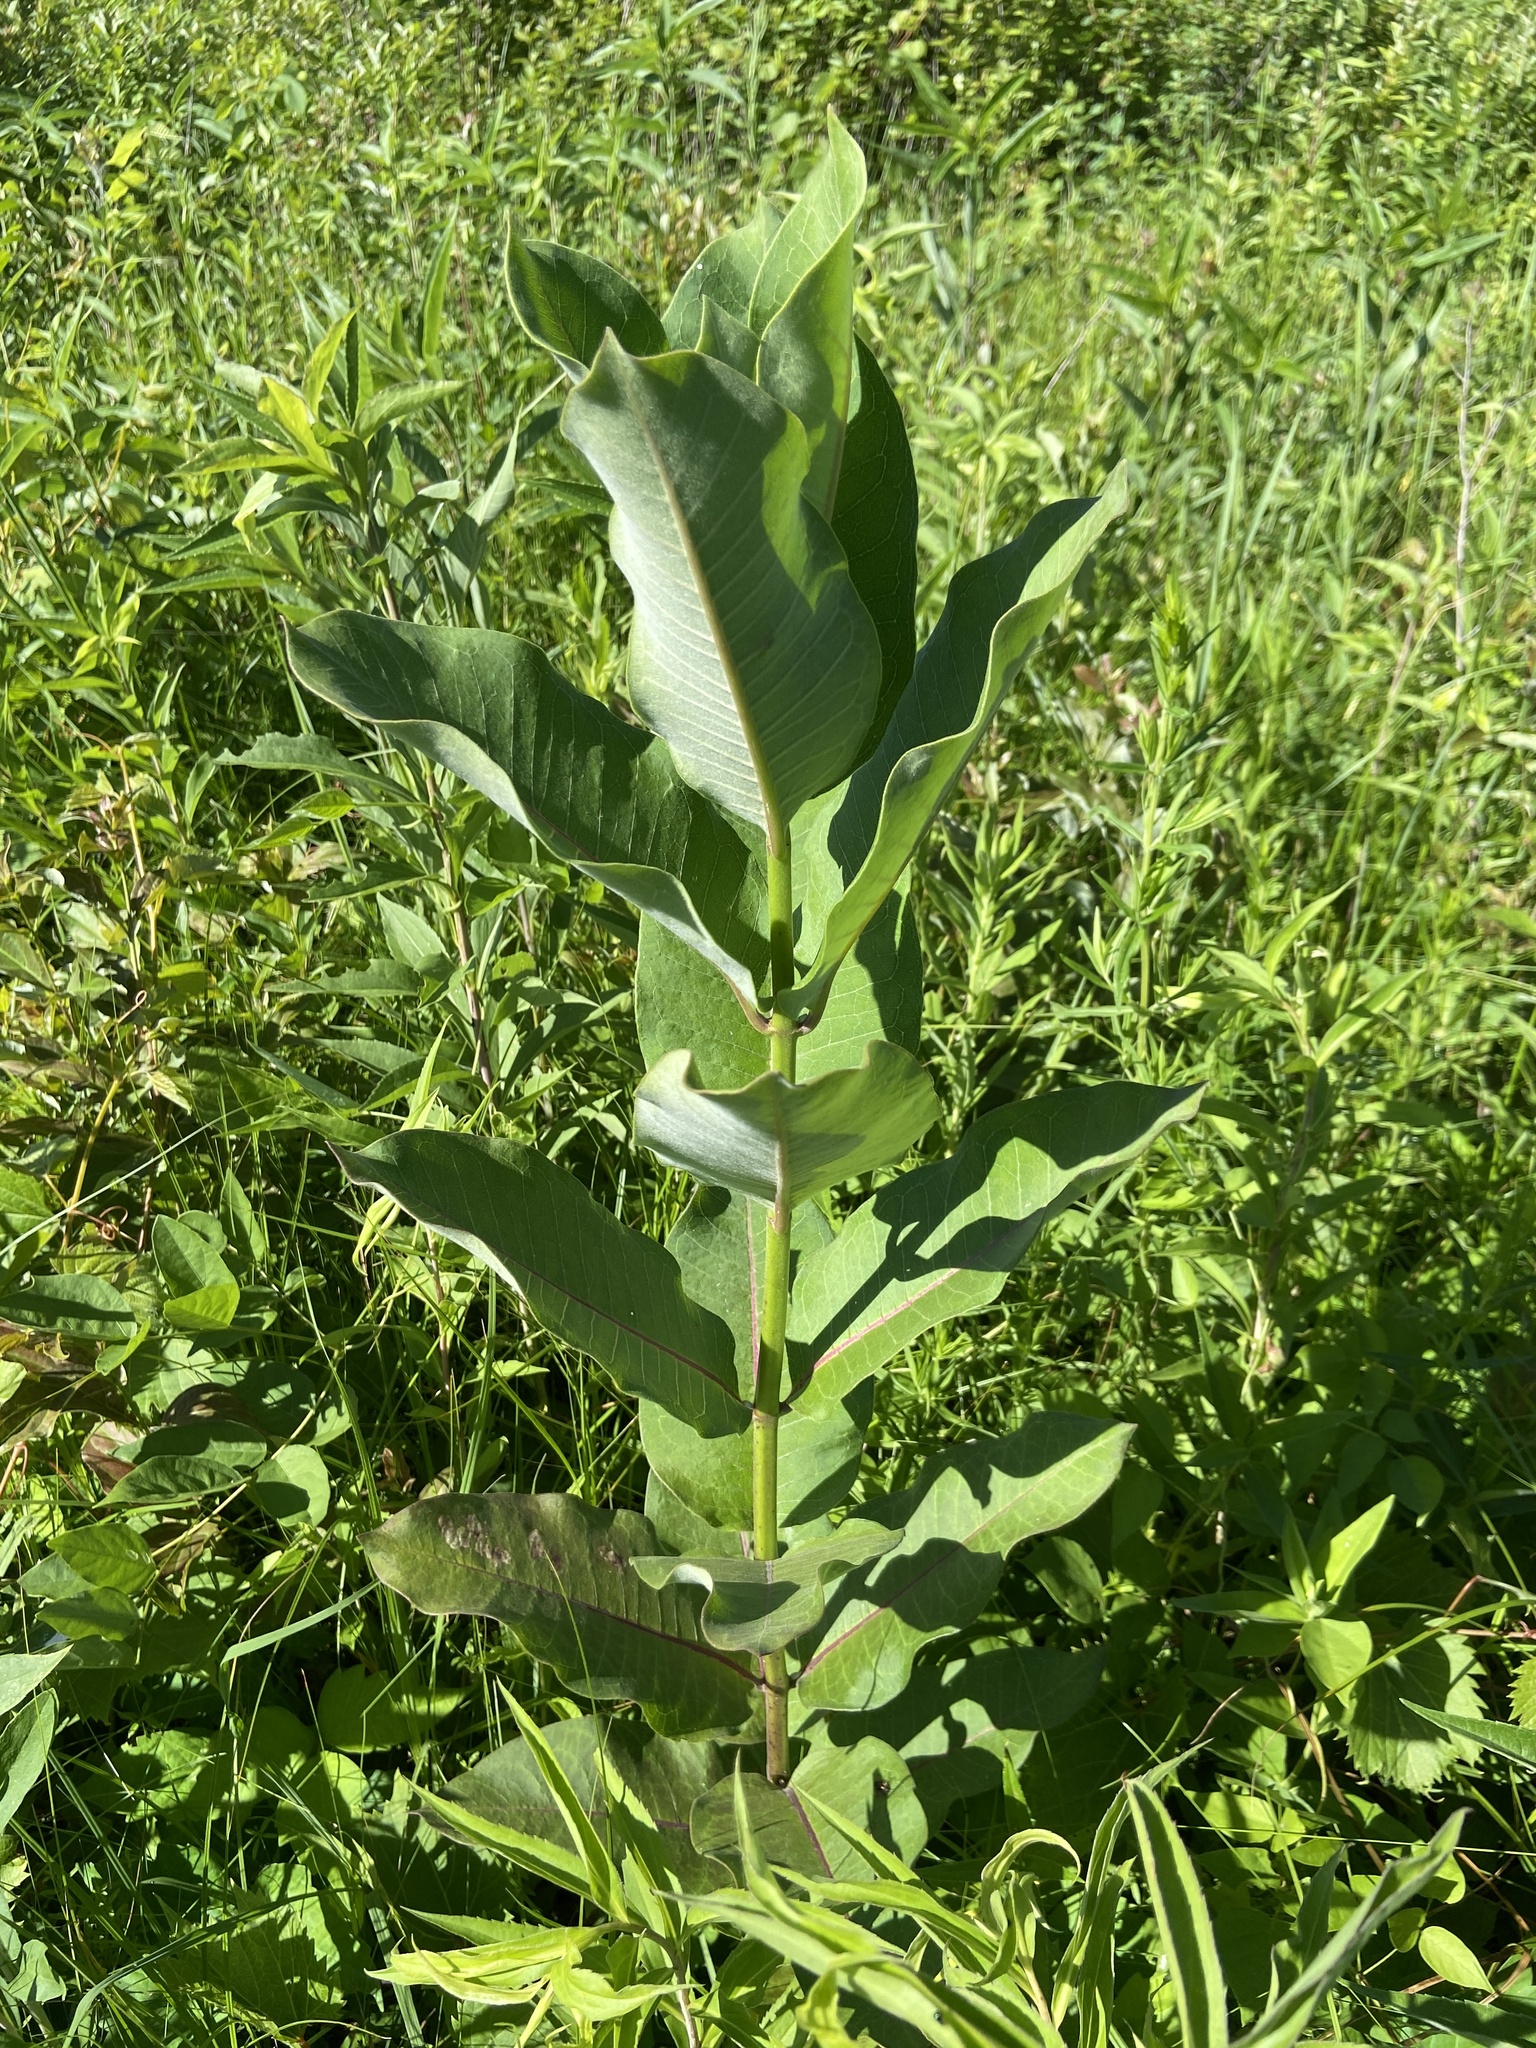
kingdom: Plantae
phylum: Tracheophyta
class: Magnoliopsida
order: Gentianales
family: Apocynaceae
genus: Asclepias
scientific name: Asclepias syriaca
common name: Common milkweed
